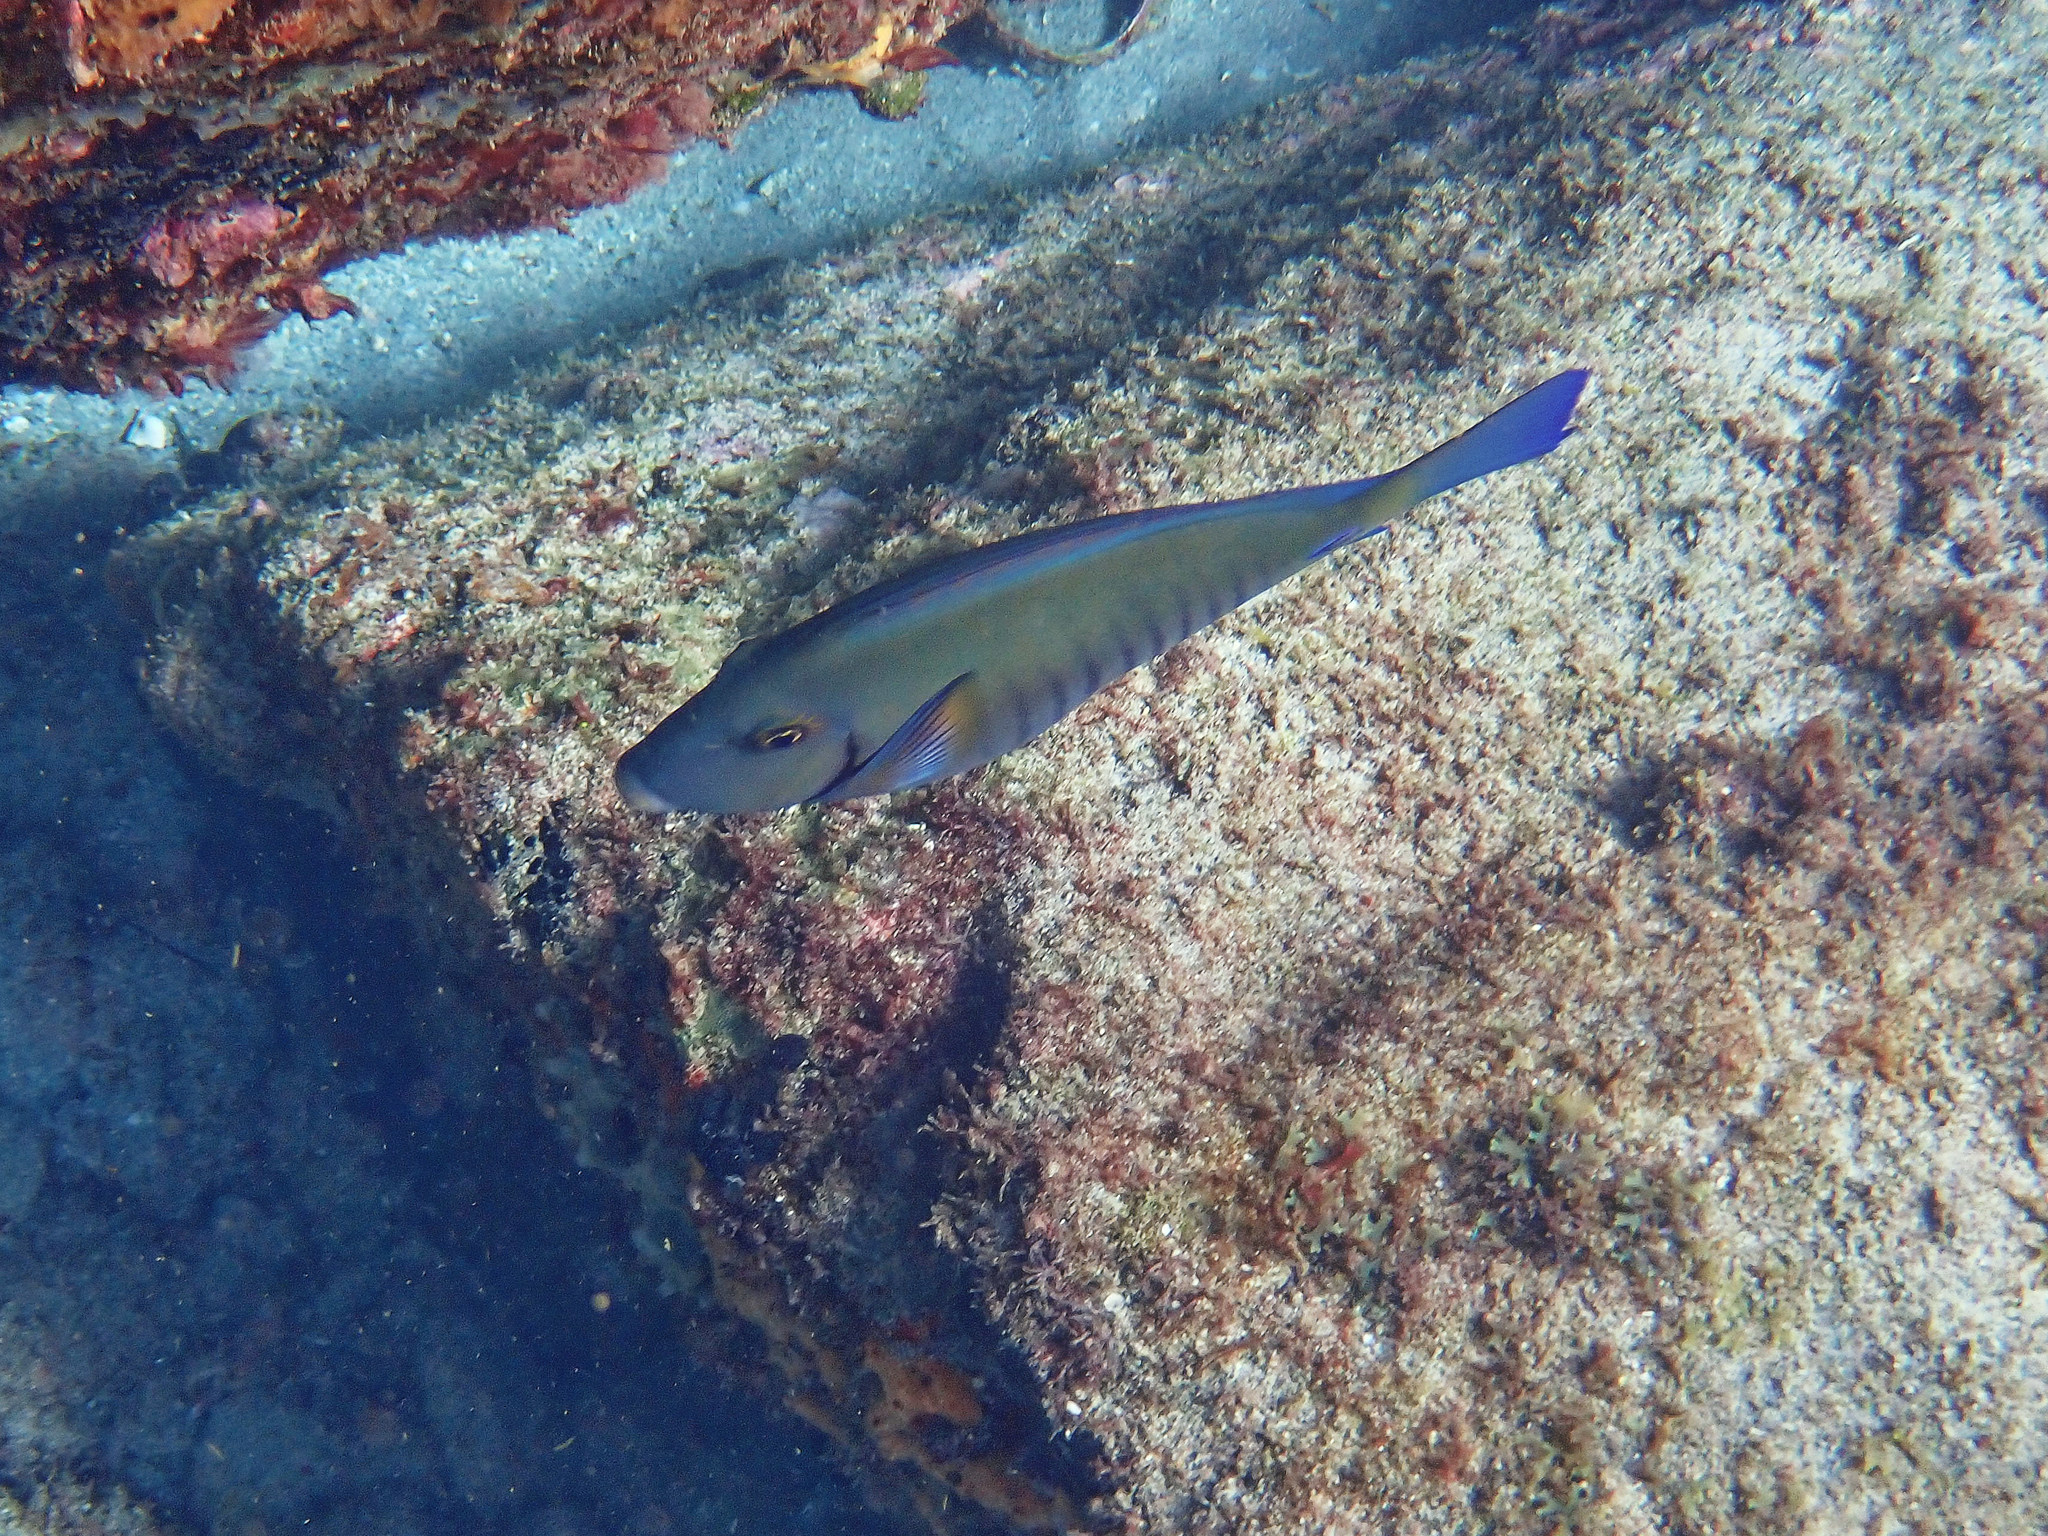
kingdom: Animalia
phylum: Chordata
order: Perciformes
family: Acanthuridae
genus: Acanthurus
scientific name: Acanthurus chirurgus
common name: Doctorfish
